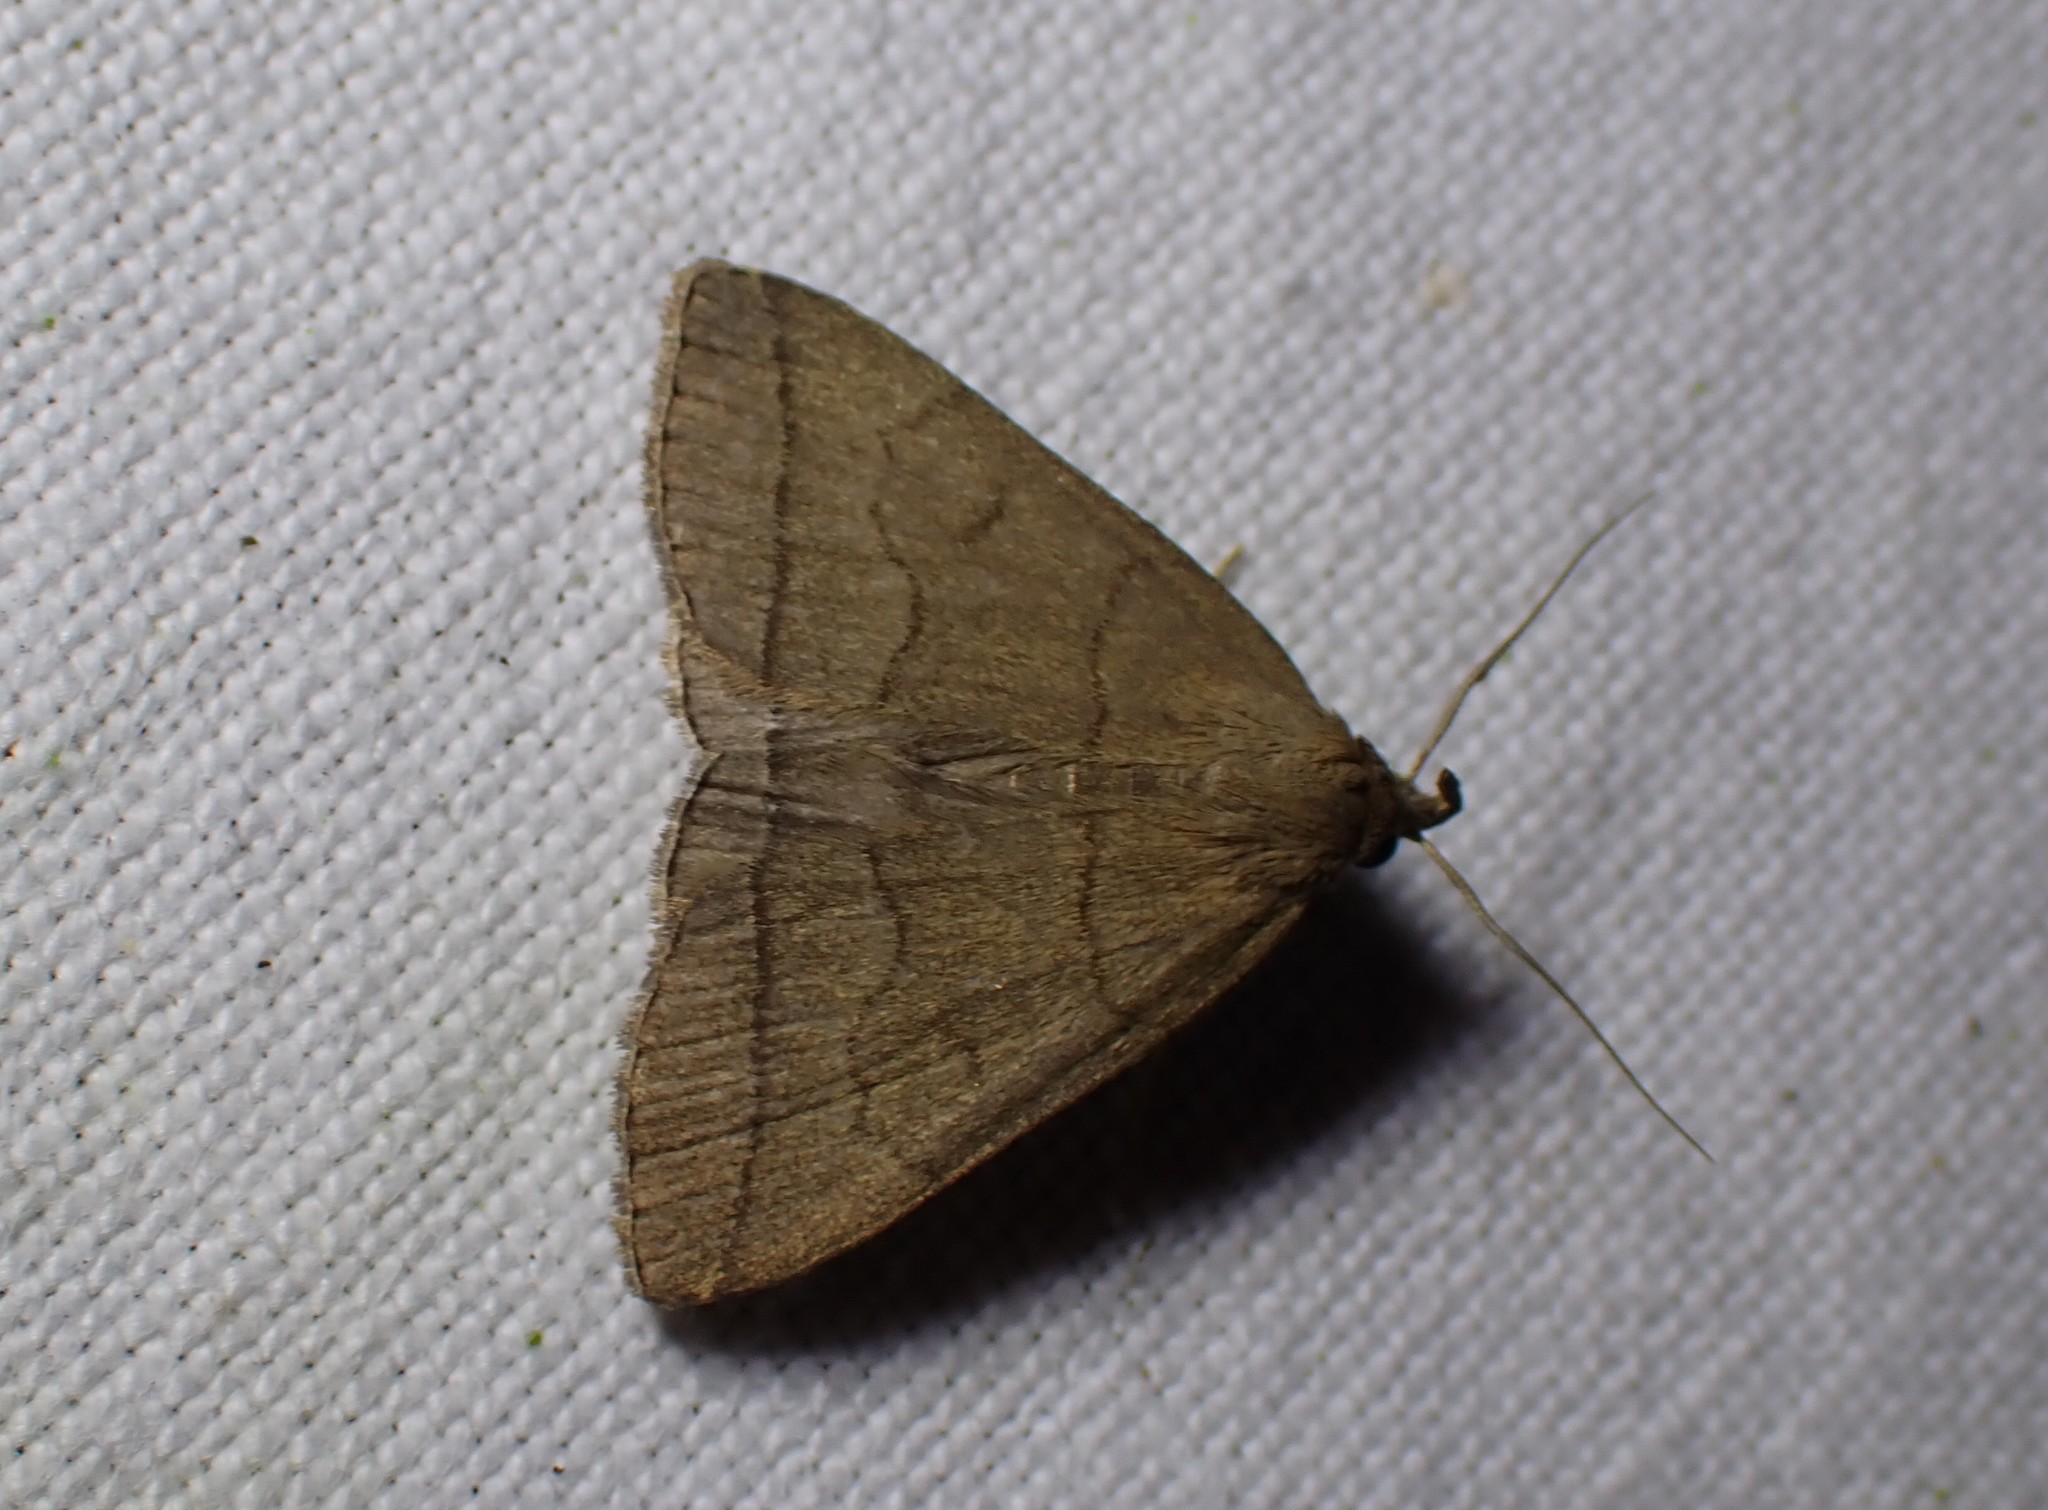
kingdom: Animalia
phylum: Arthropoda
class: Insecta
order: Lepidoptera
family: Erebidae
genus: Herminia
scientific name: Herminia tarsipennalis
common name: Fan-foot
